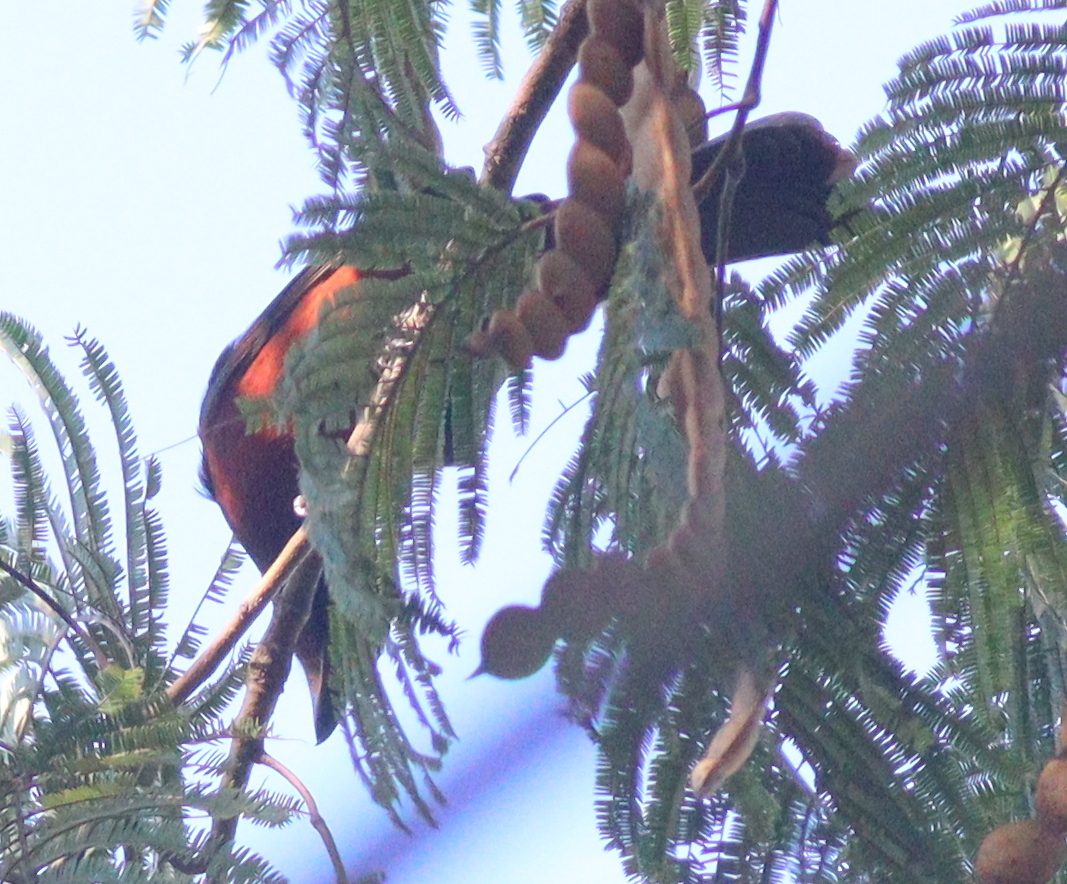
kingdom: Animalia
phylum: Chordata
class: Aves
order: Passeriformes
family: Thraupidae
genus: Ramphocelus
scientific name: Ramphocelus carbo
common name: Silver-beaked tanager
